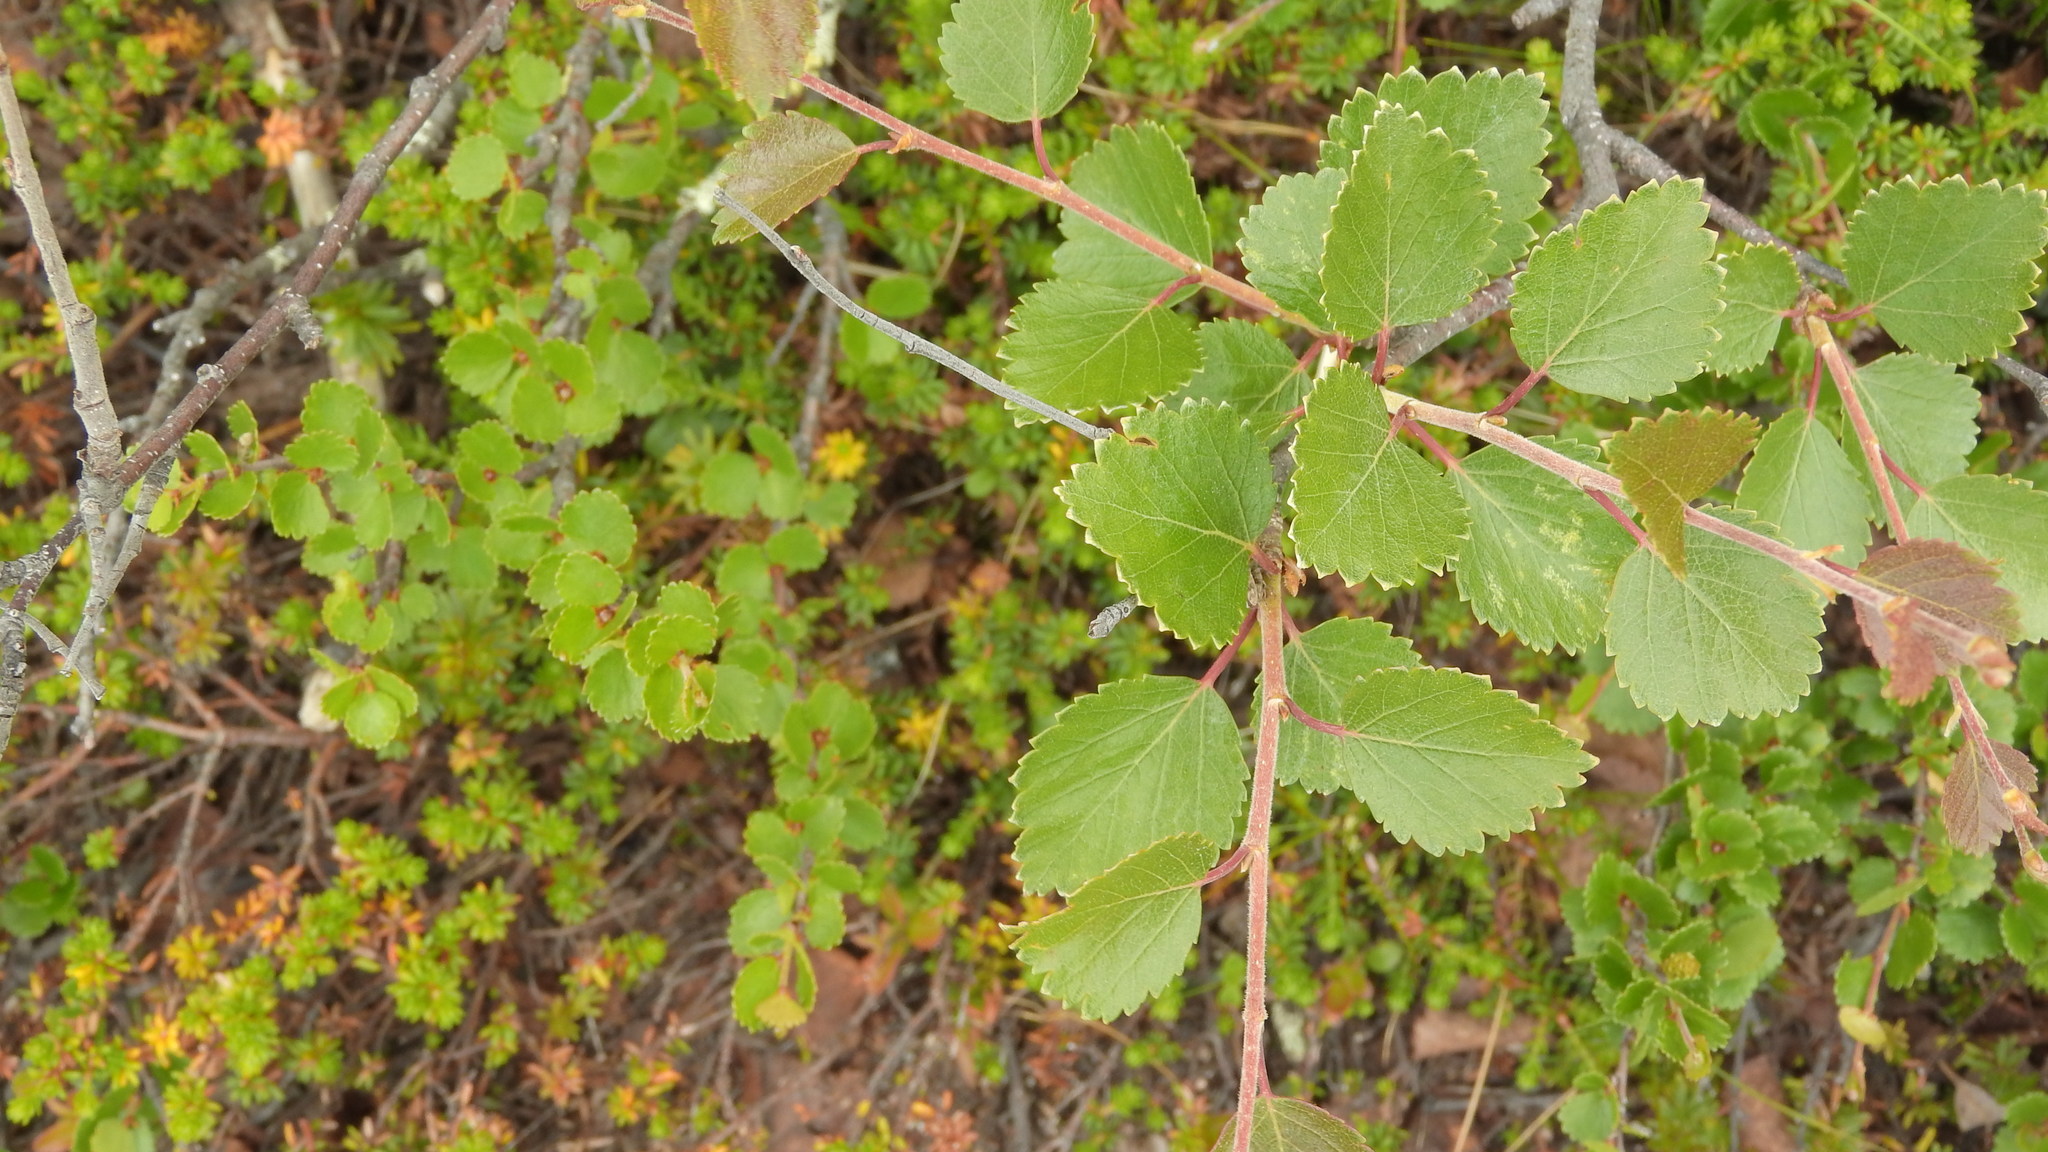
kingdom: Plantae
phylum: Tracheophyta
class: Magnoliopsida
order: Fagales
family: Betulaceae
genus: Betula
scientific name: Betula nana
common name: Arctic dwarf birch
